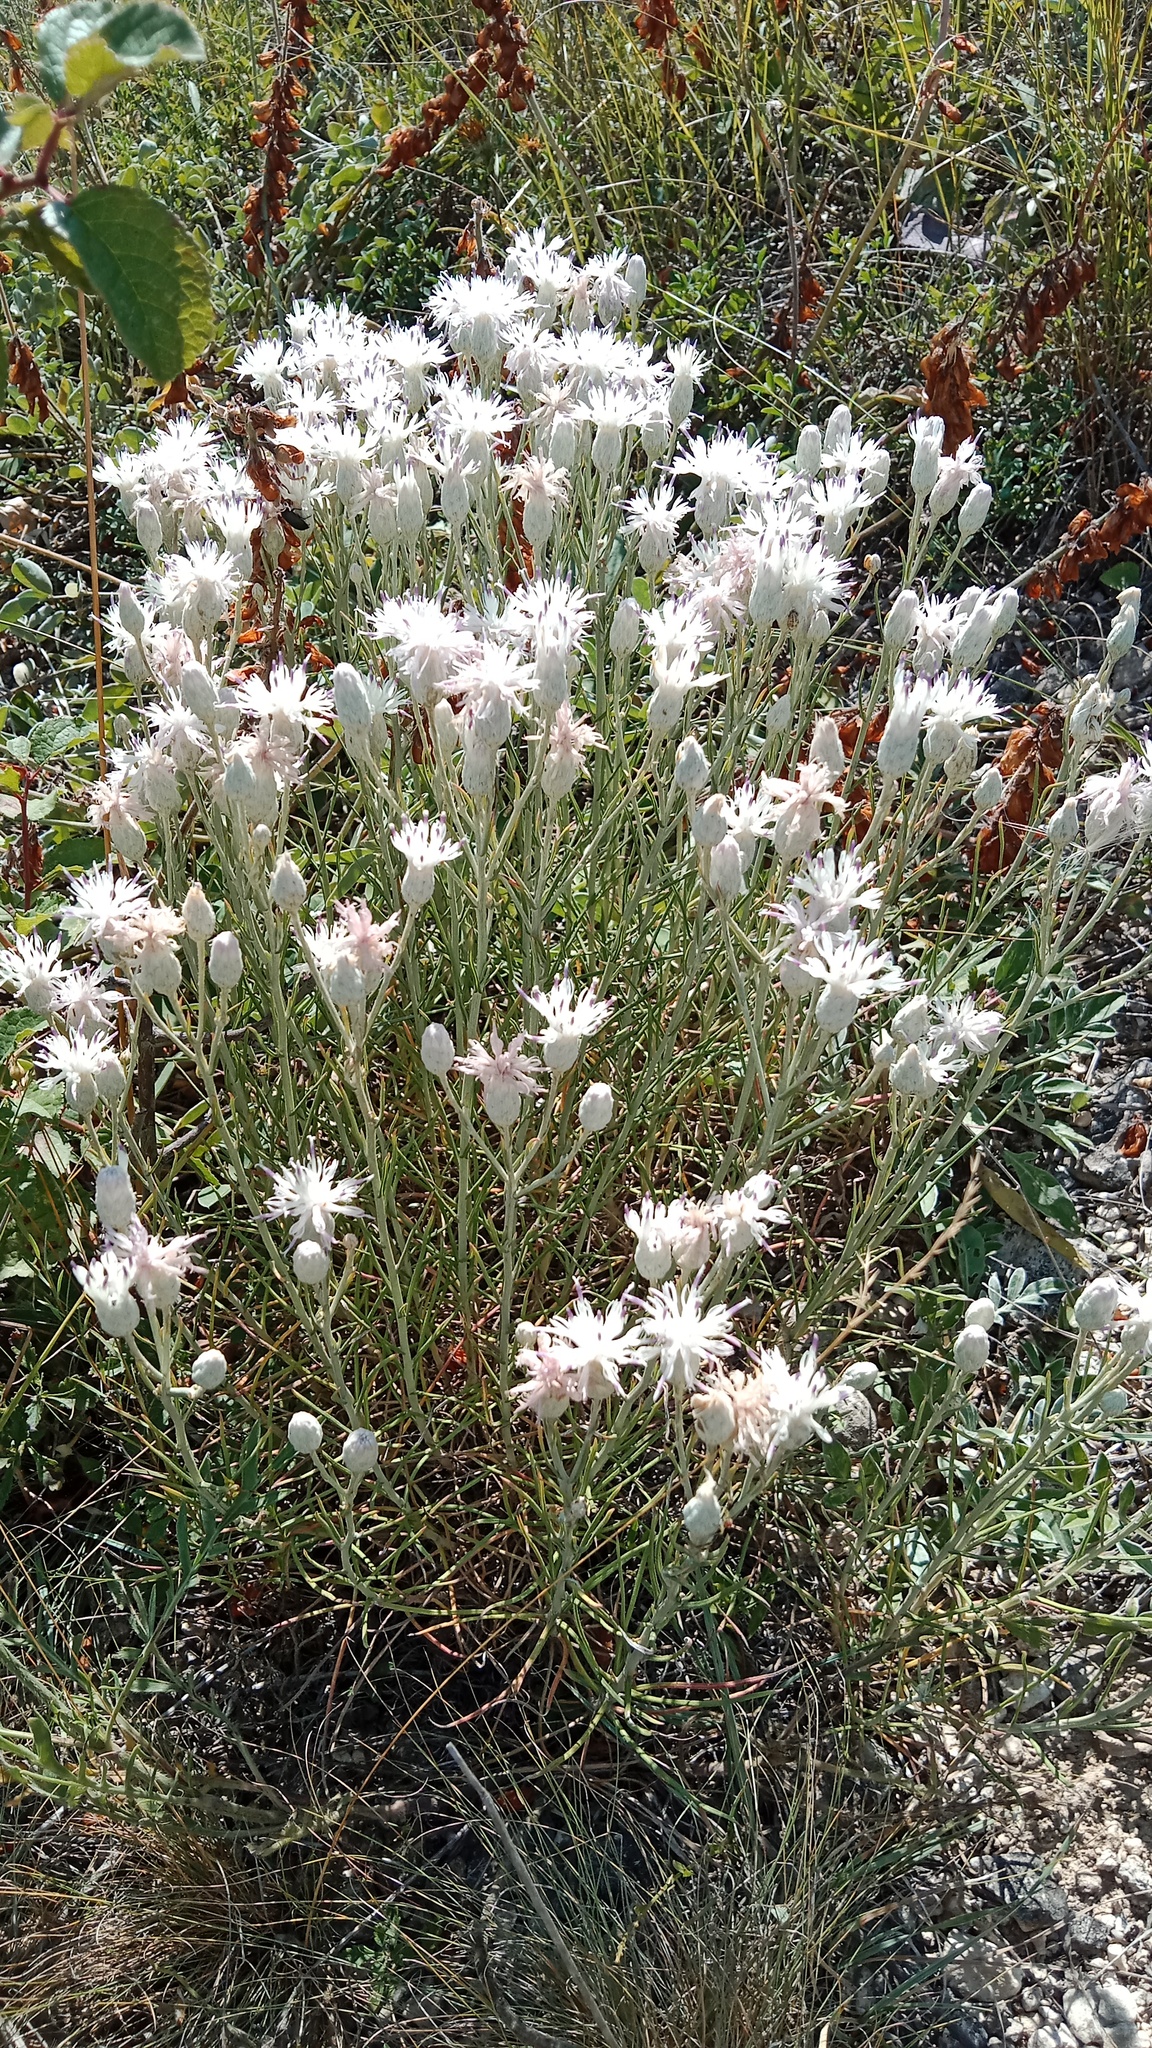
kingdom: Plantae
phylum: Tracheophyta
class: Magnoliopsida
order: Asterales
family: Asteraceae
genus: Jurinea
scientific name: Jurinea stoechadifolia
